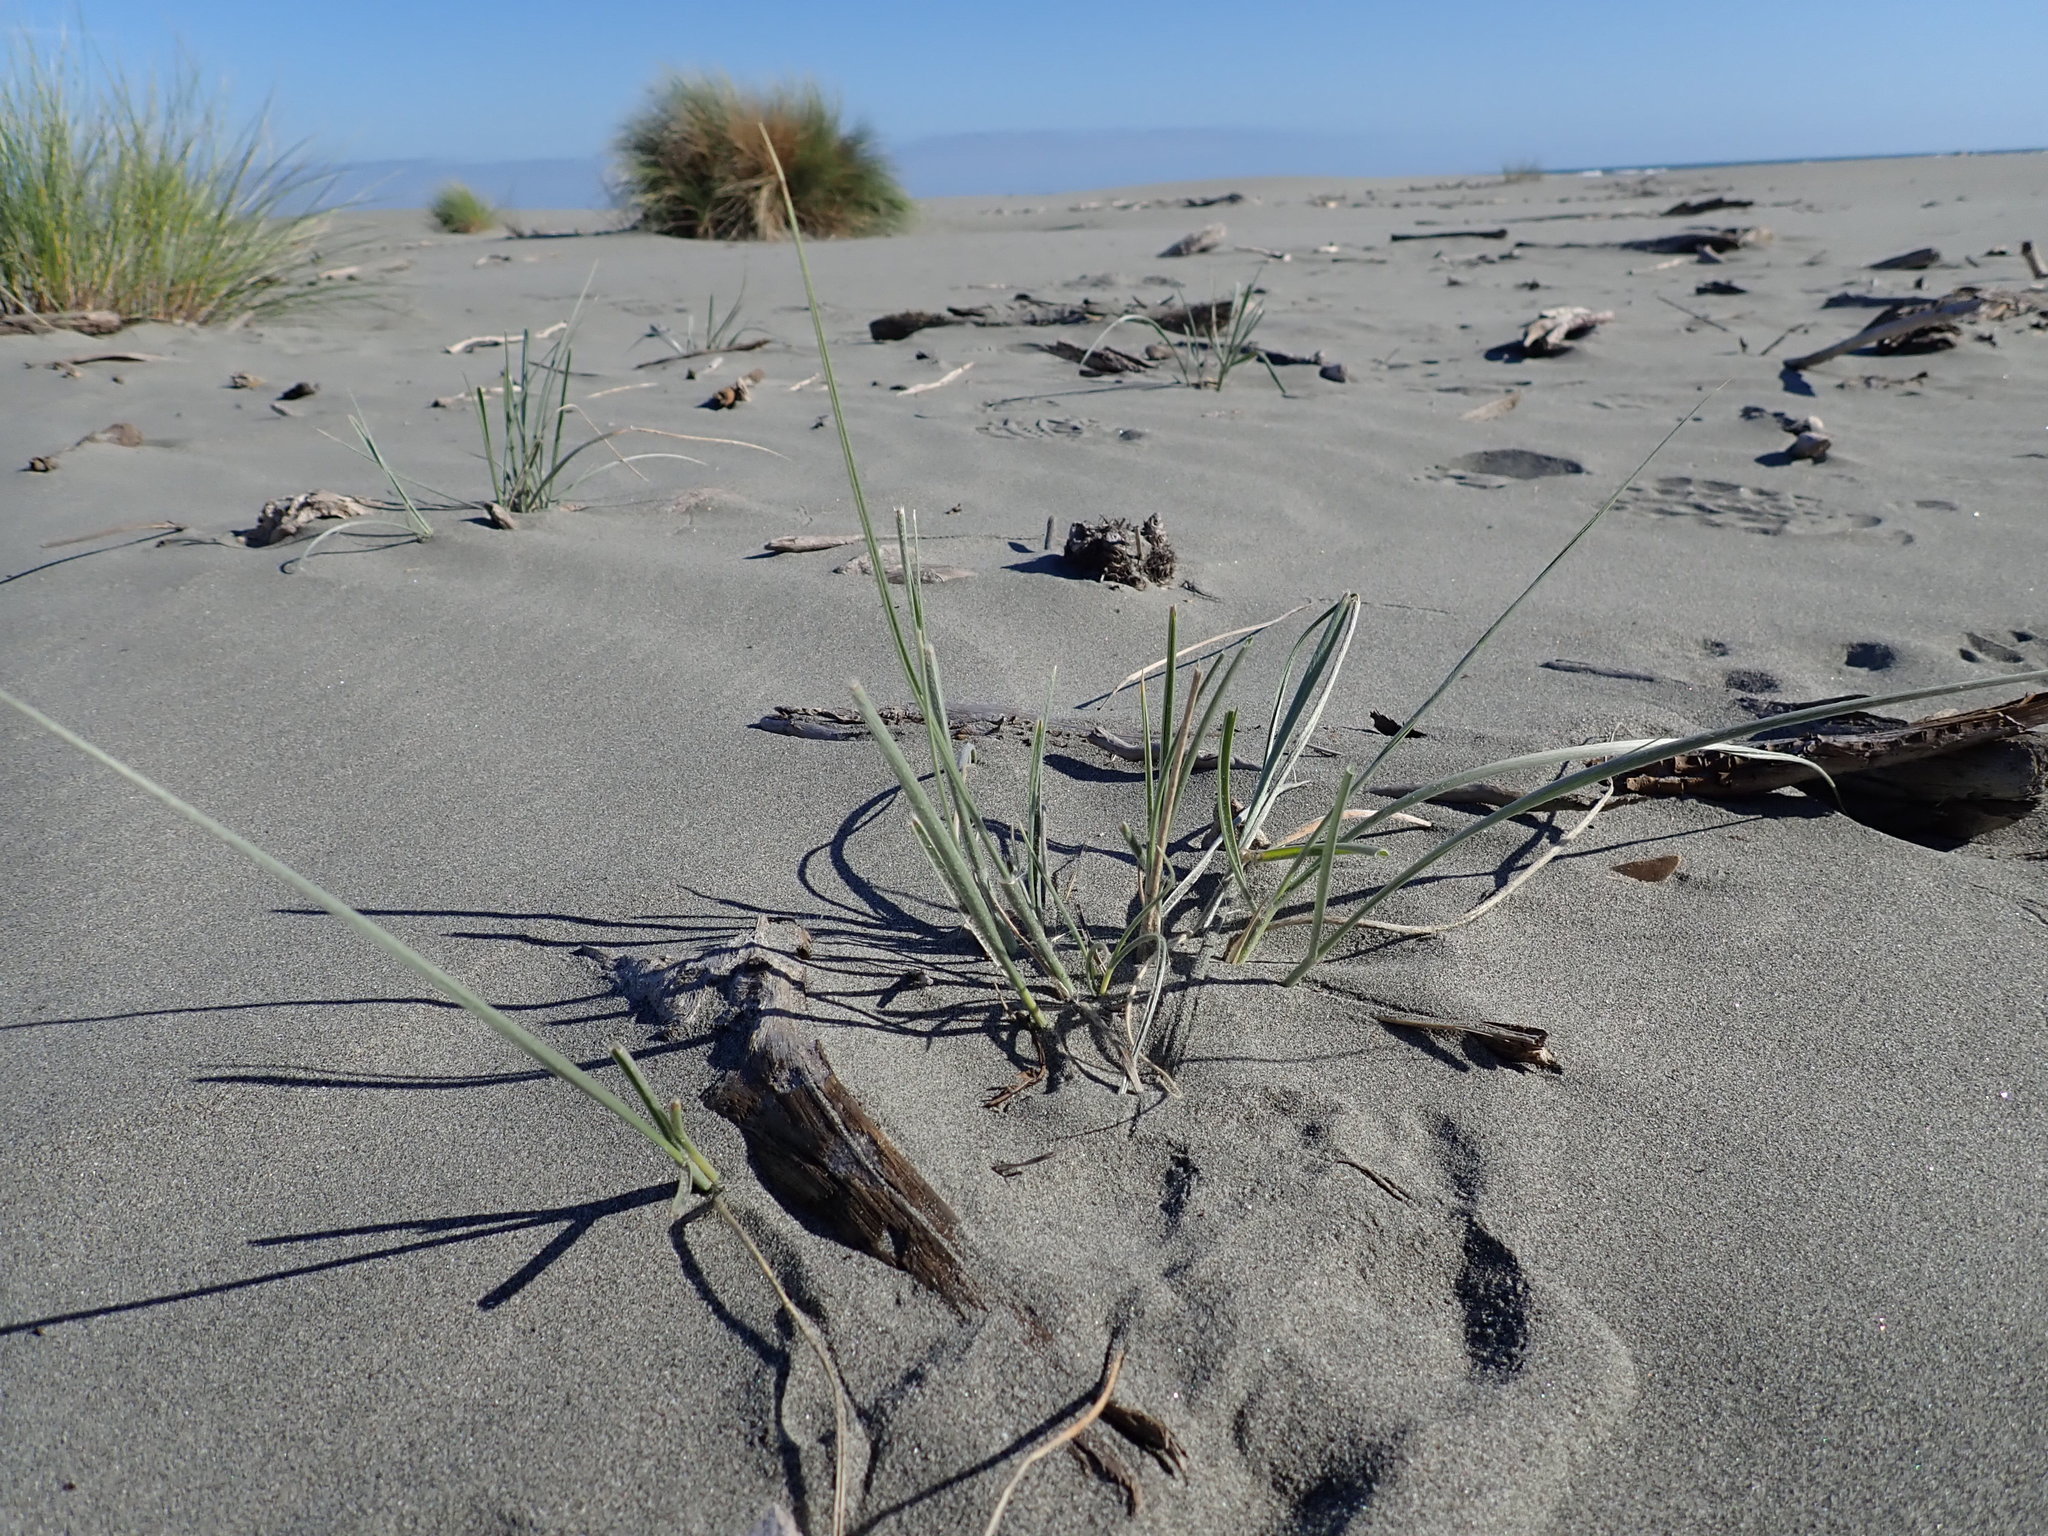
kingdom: Plantae
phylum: Tracheophyta
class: Liliopsida
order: Poales
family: Poaceae
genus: Spinifex
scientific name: Spinifex sericeus
